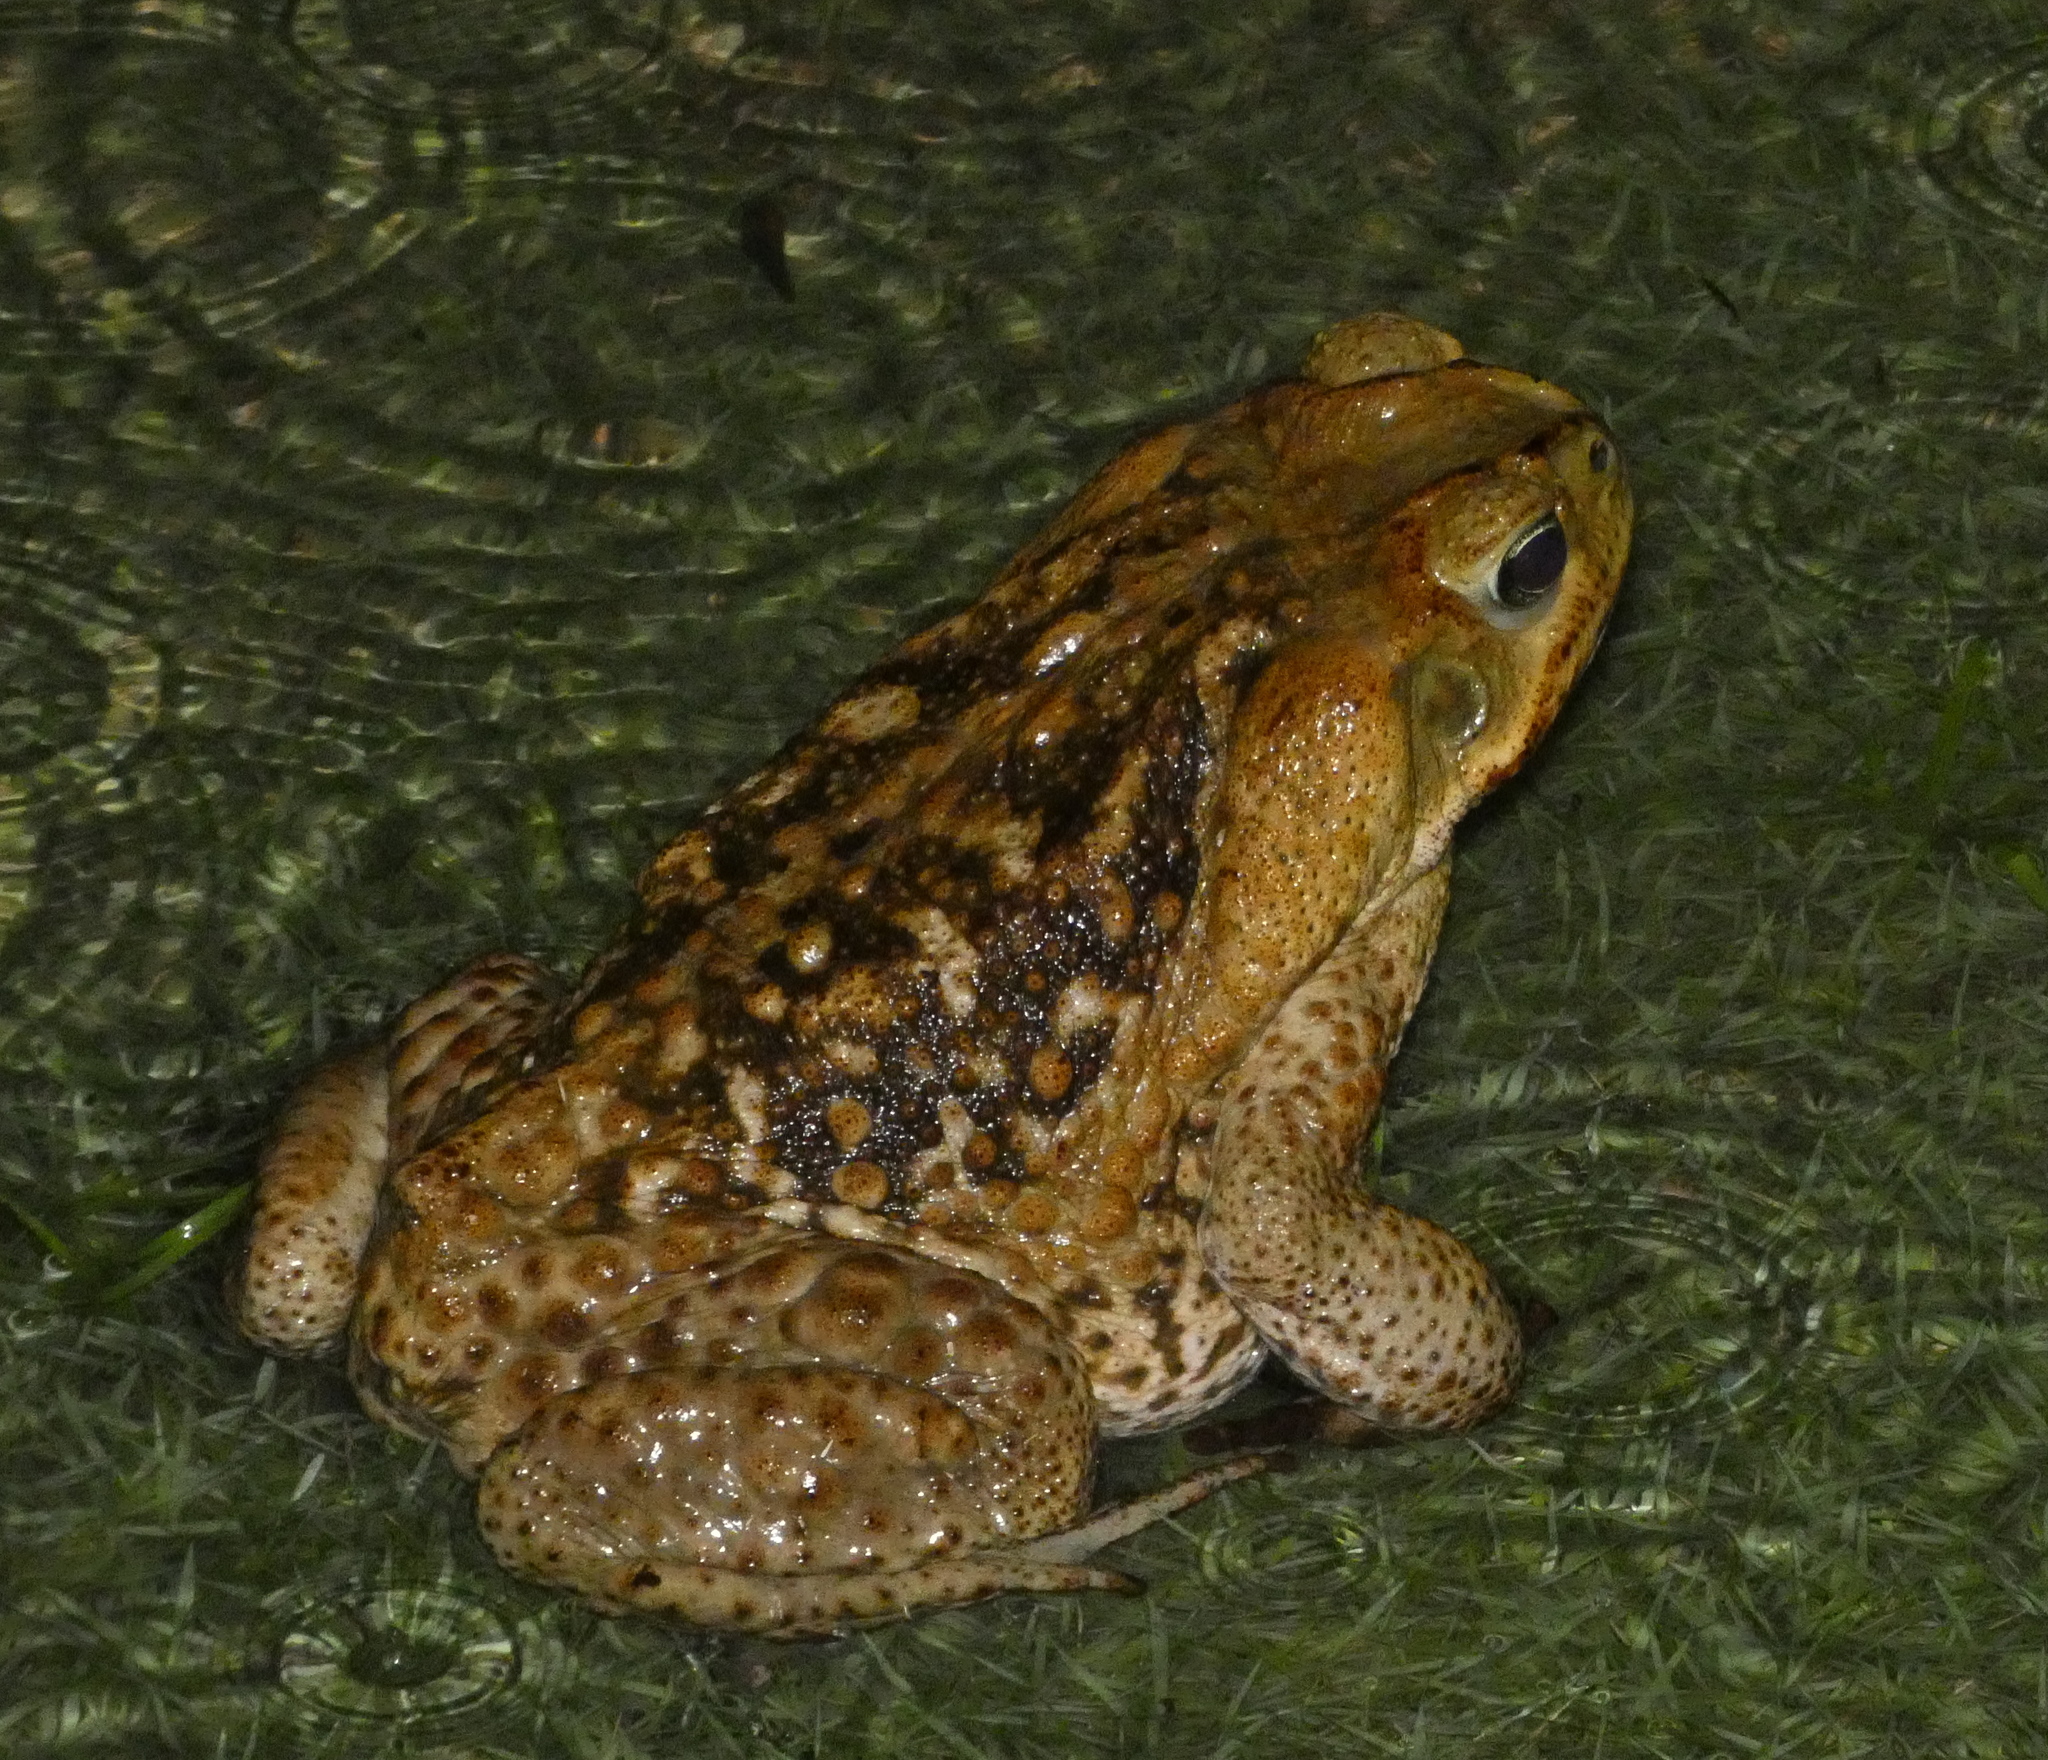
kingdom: Animalia
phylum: Chordata
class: Amphibia
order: Anura
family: Bufonidae
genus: Rhinella
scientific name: Rhinella diptycha
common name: Cope's toad
